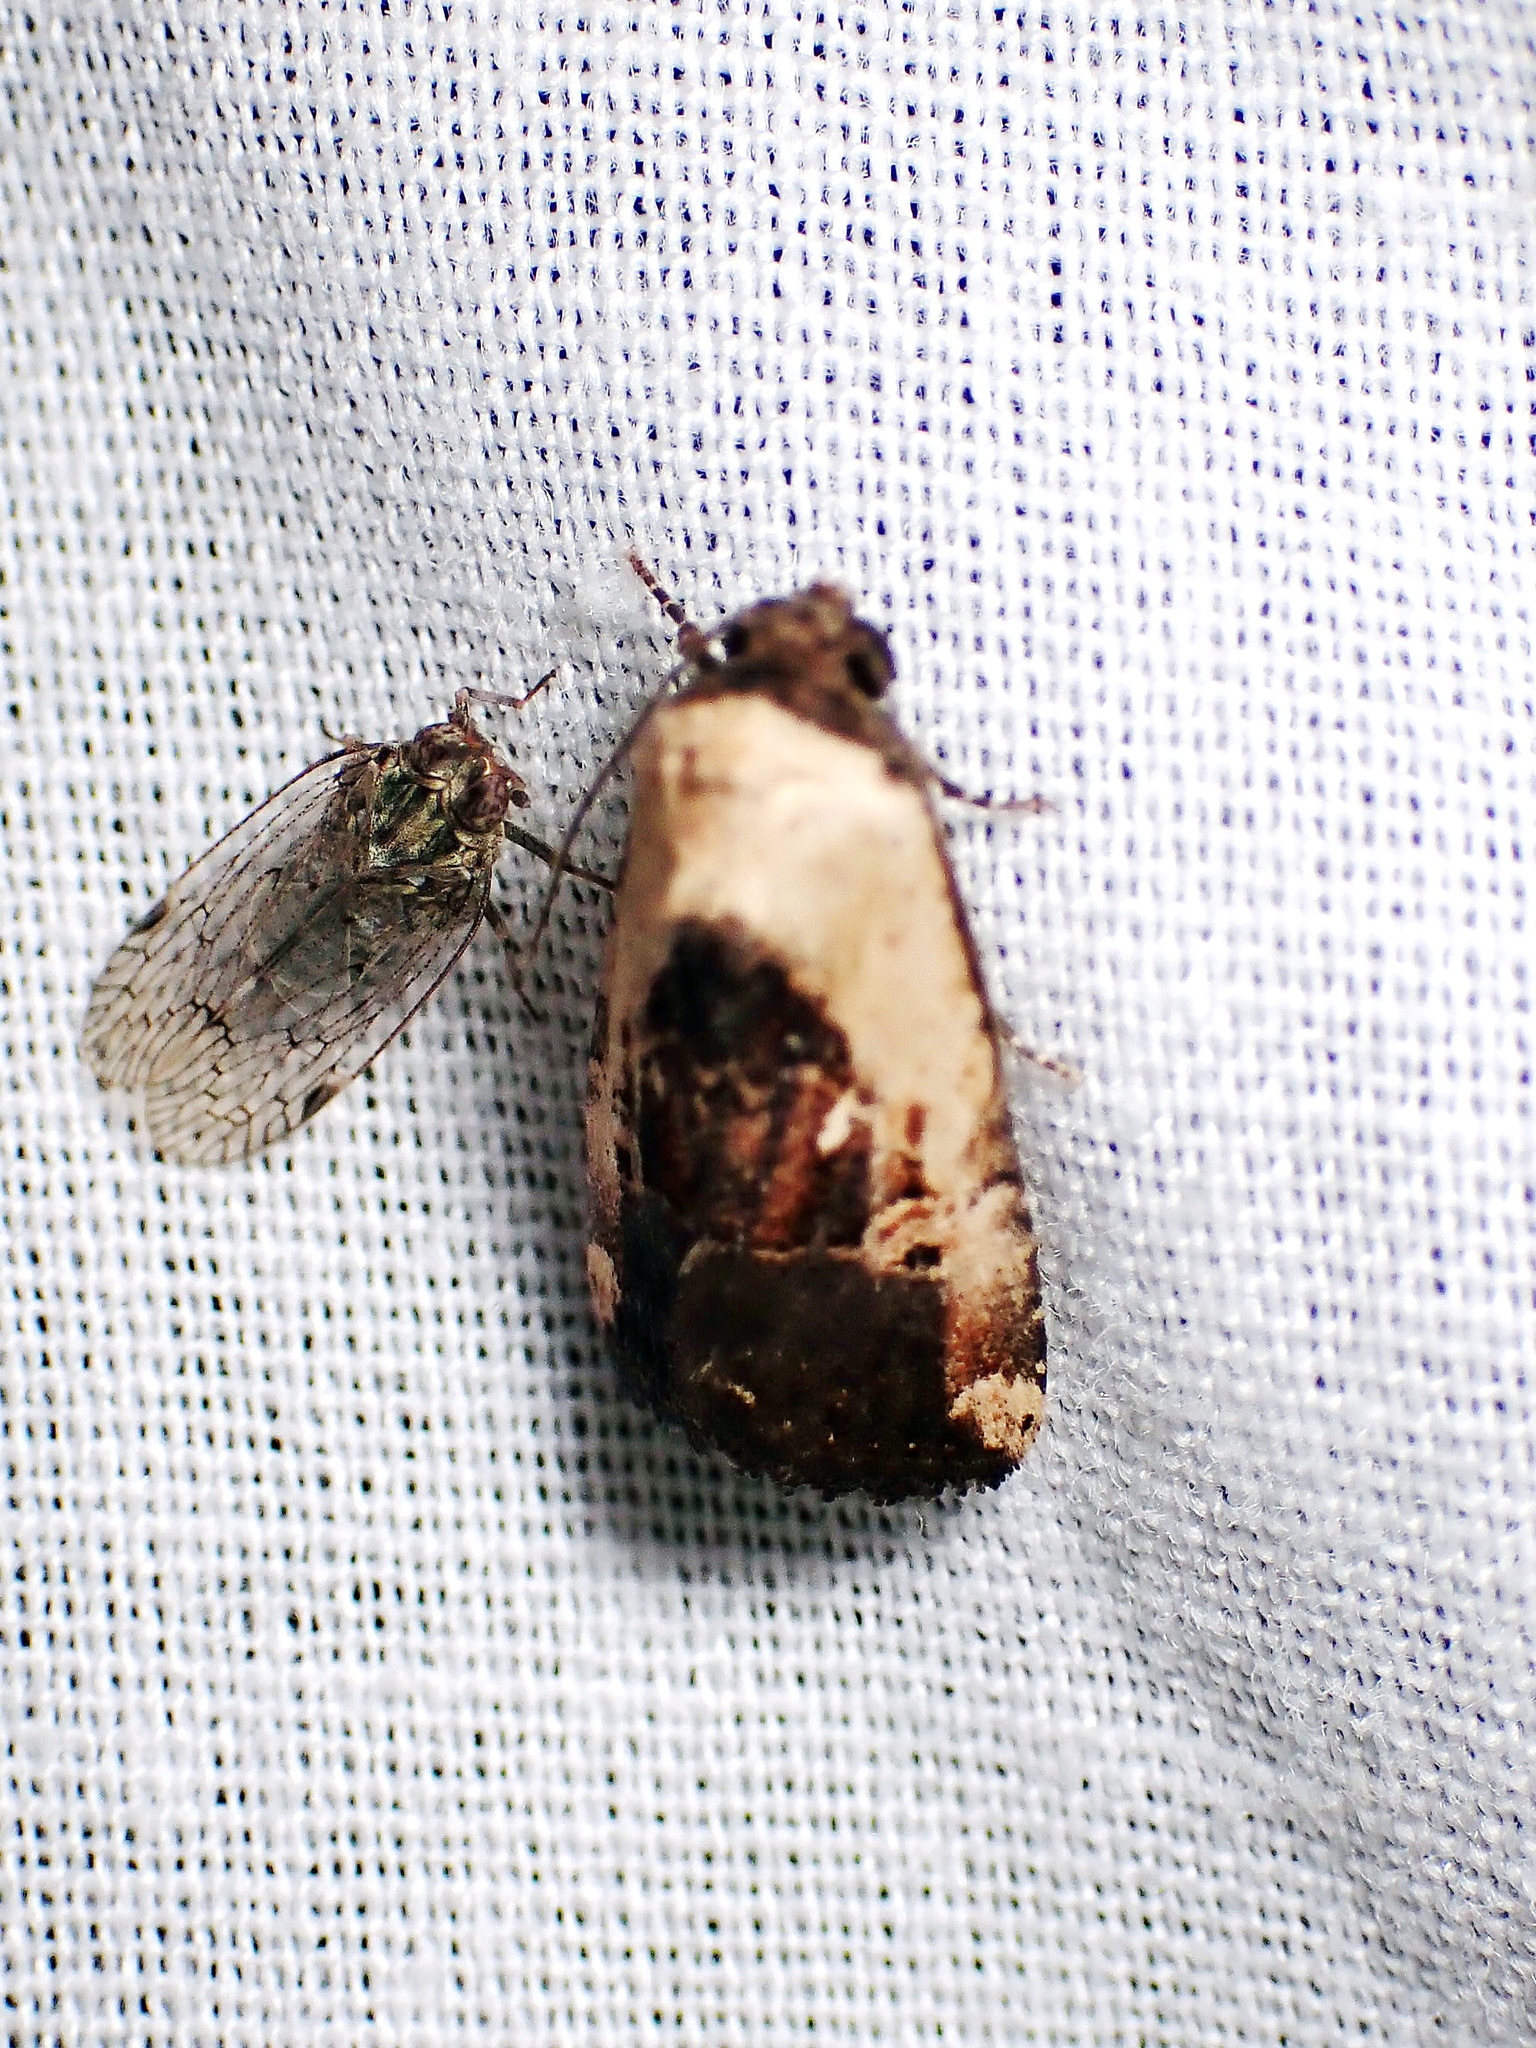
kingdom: Animalia
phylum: Arthropoda
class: Insecta
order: Lepidoptera
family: Noctuidae
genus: Elaphria
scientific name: Elaphria agrotina
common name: Agrotina midget
